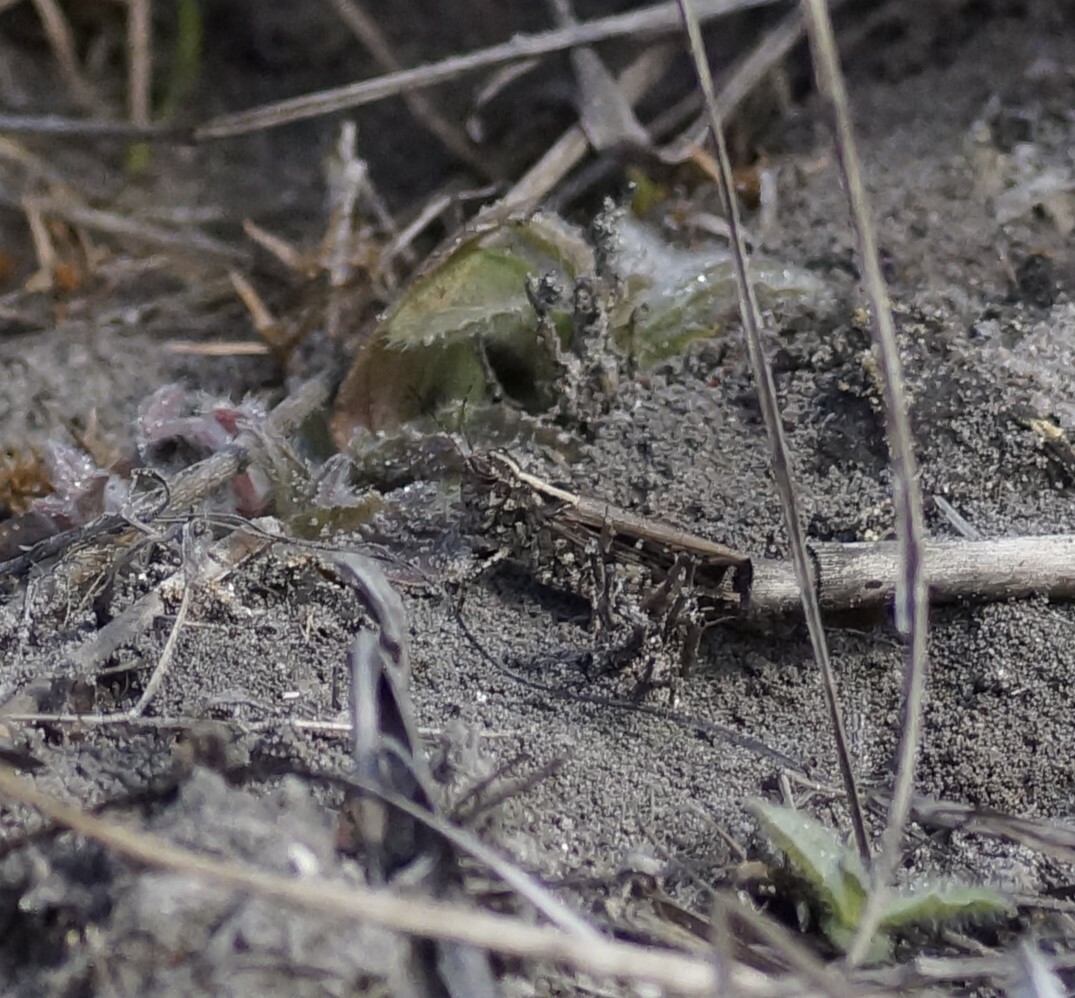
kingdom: Animalia
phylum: Arthropoda
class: Insecta
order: Orthoptera
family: Acrididae
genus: Heteropternis
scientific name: Heteropternis obscurella
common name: Long-legged bandwing
